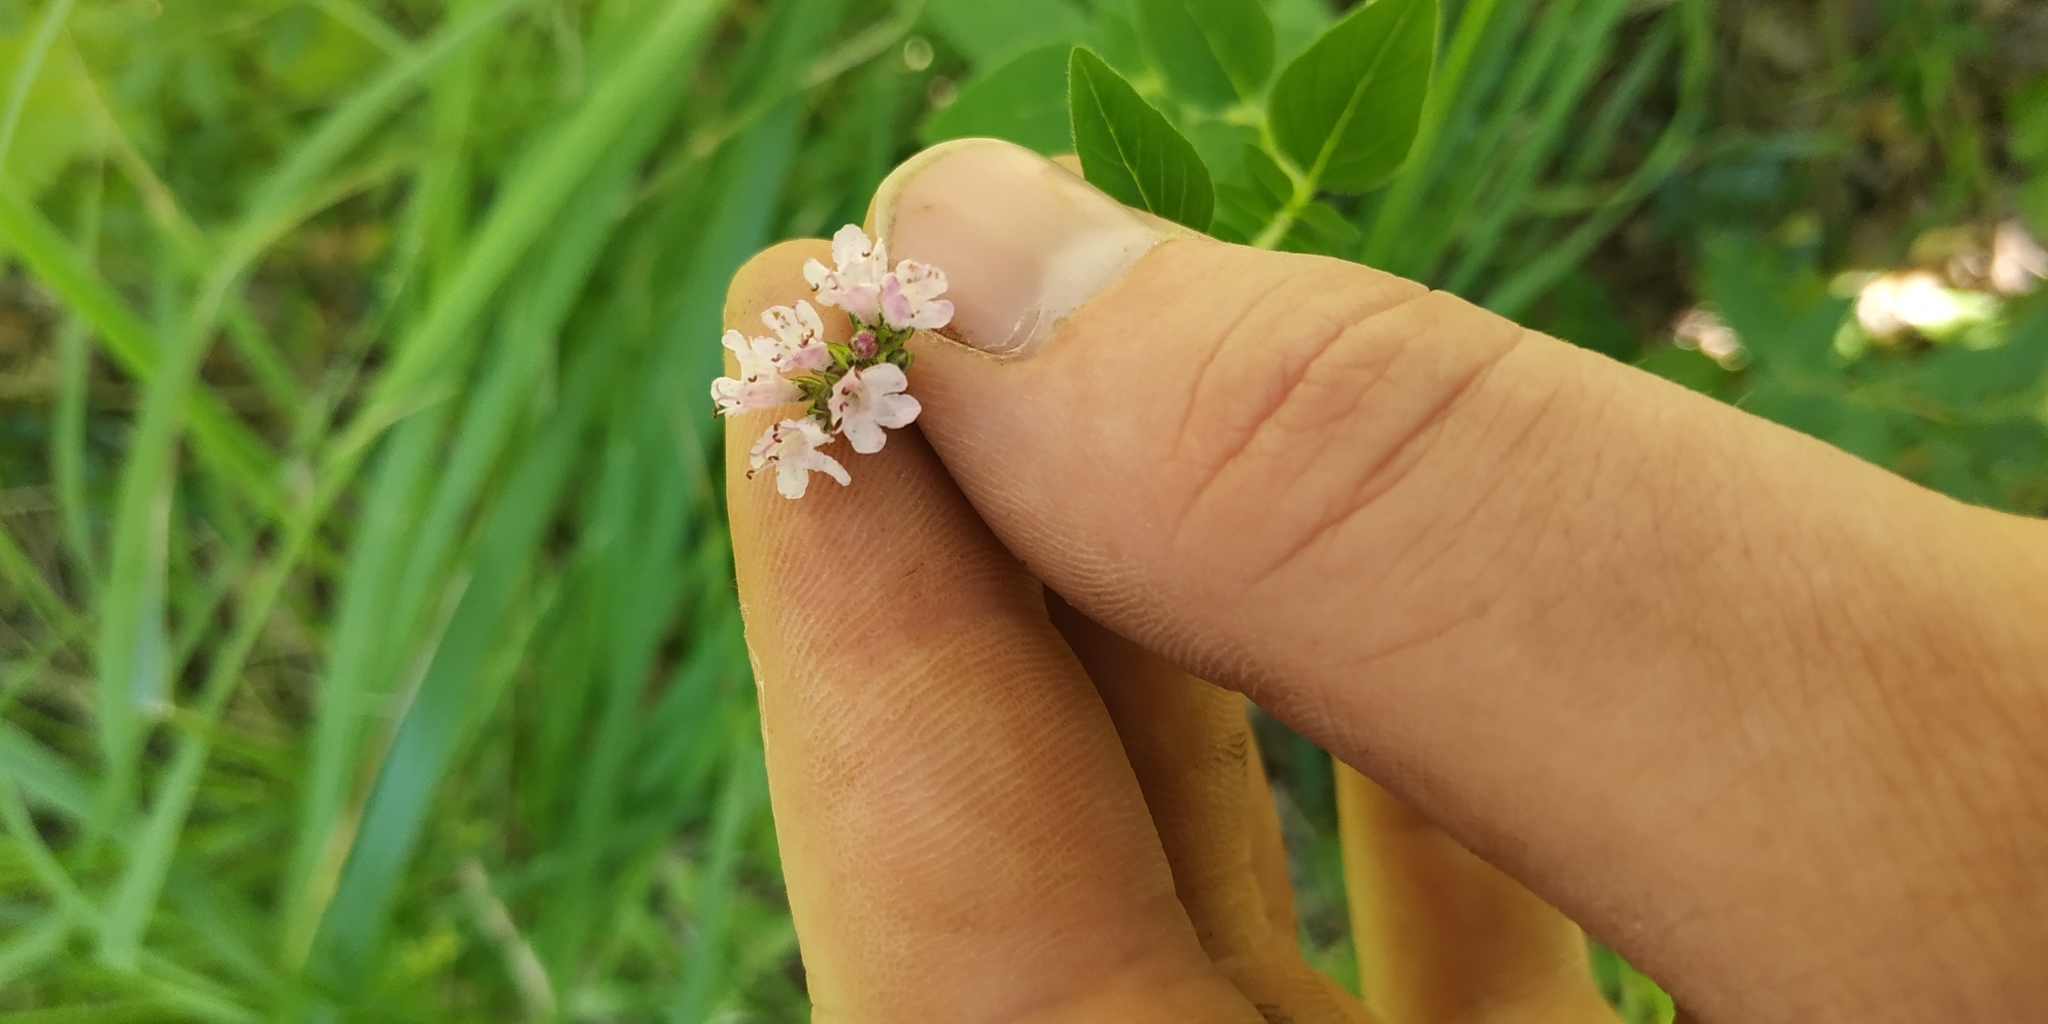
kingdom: Plantae
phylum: Tracheophyta
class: Magnoliopsida
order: Lamiales
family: Lamiaceae
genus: Origanum
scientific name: Origanum vulgare
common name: Wild marjoram
